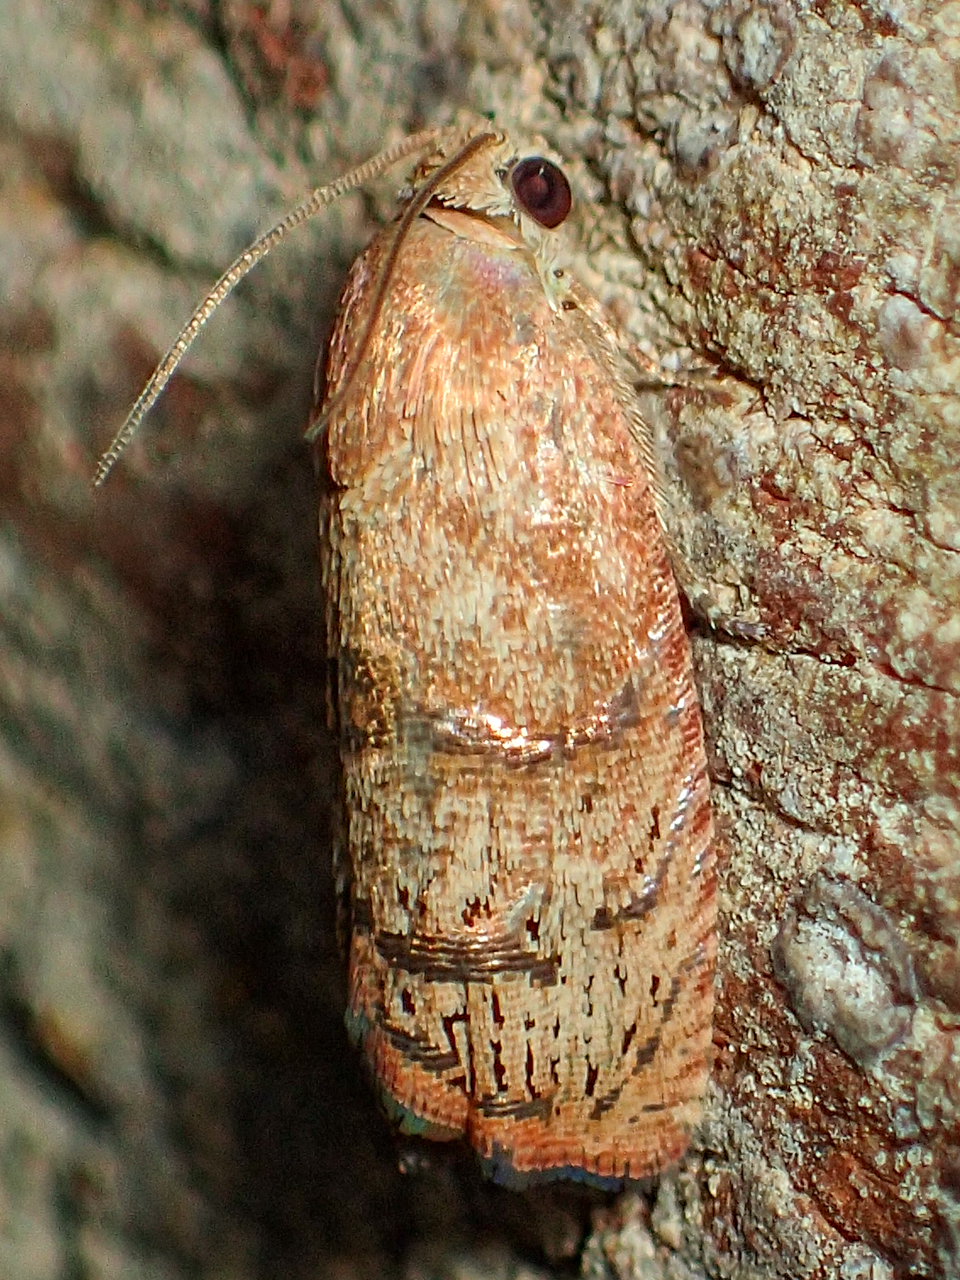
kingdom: Animalia
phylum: Arthropoda
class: Insecta
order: Lepidoptera
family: Tortricidae
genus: Cydia
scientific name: Cydia latiferreana
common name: Filbertworm moth
